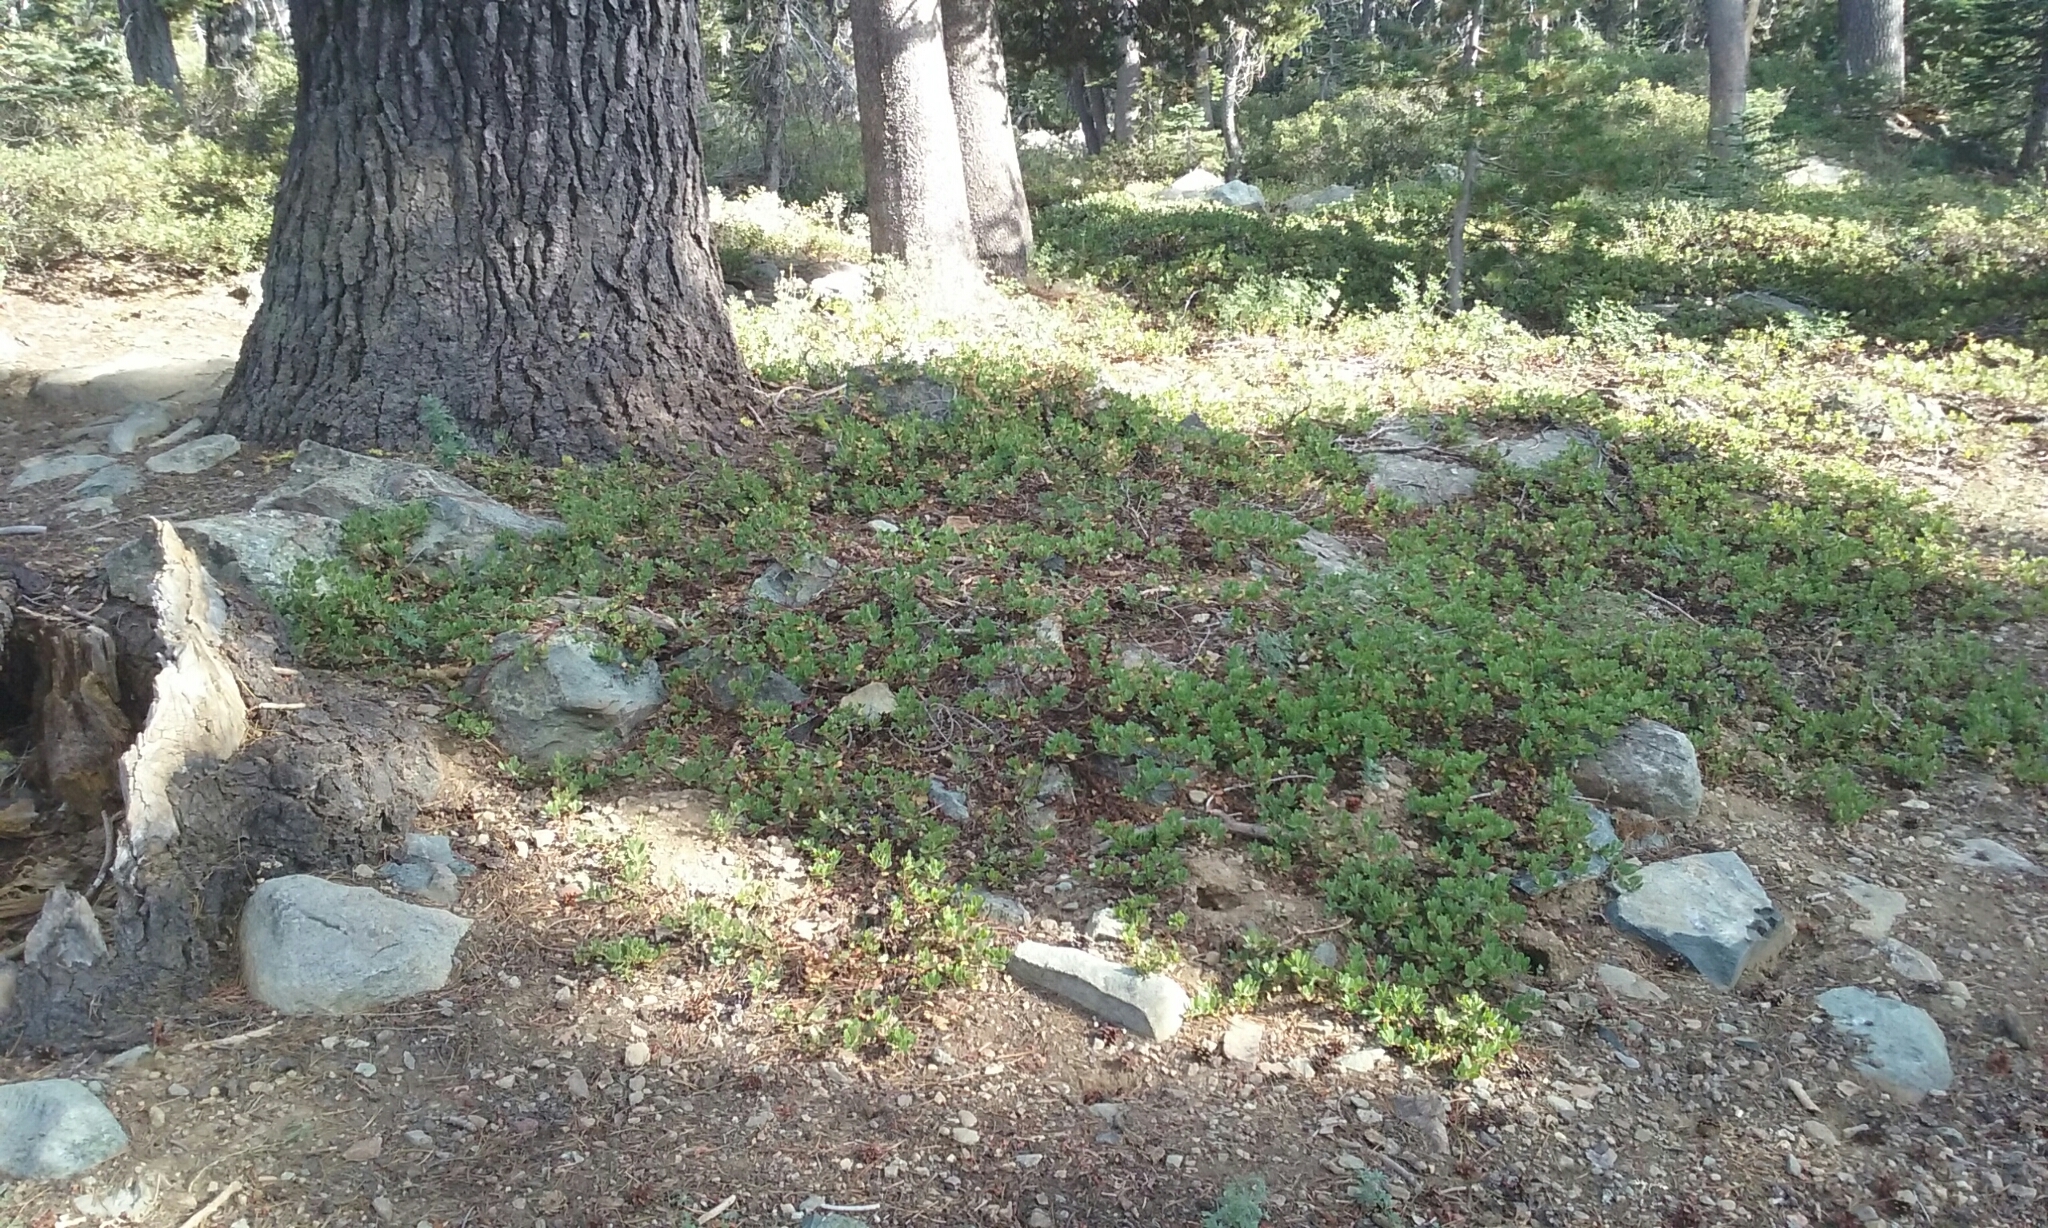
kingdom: Plantae
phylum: Tracheophyta
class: Magnoliopsida
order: Ericales
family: Ericaceae
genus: Arctostaphylos
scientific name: Arctostaphylos nevadensis
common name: Pinemat manzanita
